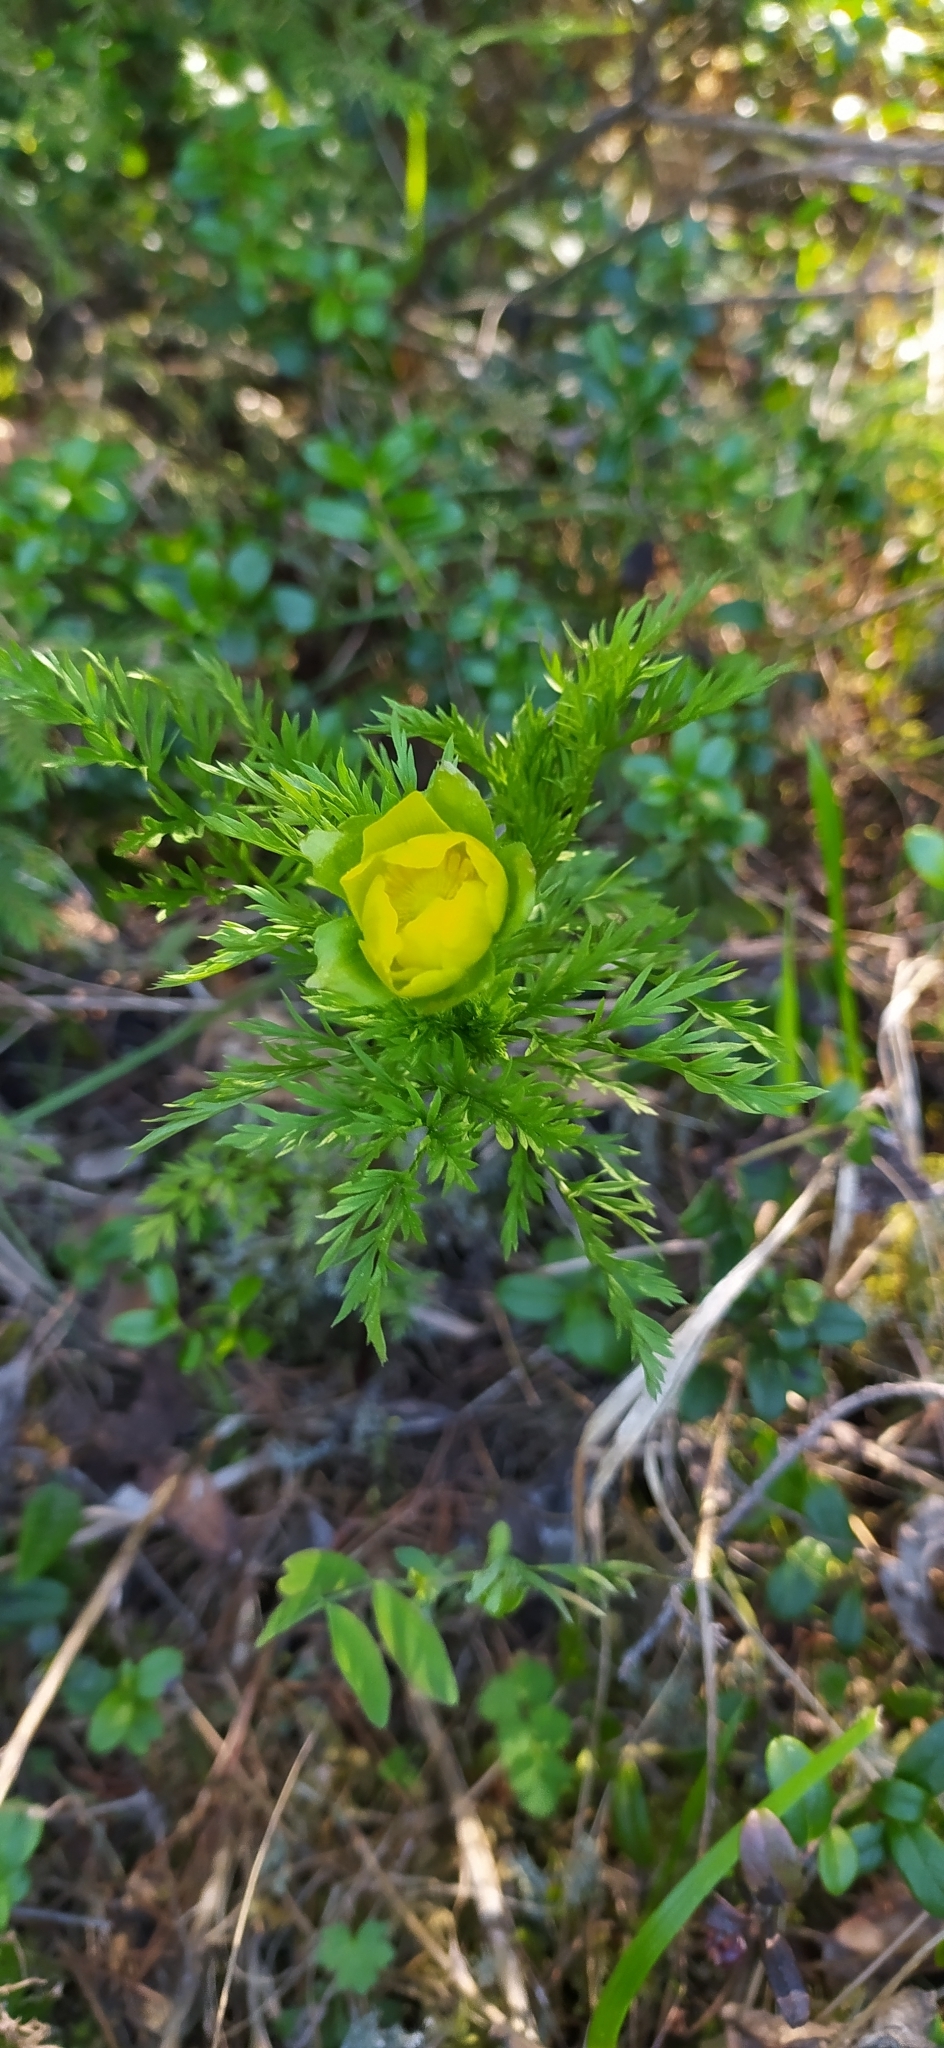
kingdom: Plantae
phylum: Tracheophyta
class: Magnoliopsida
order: Ranunculales
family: Ranunculaceae
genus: Adonis
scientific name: Adonis
